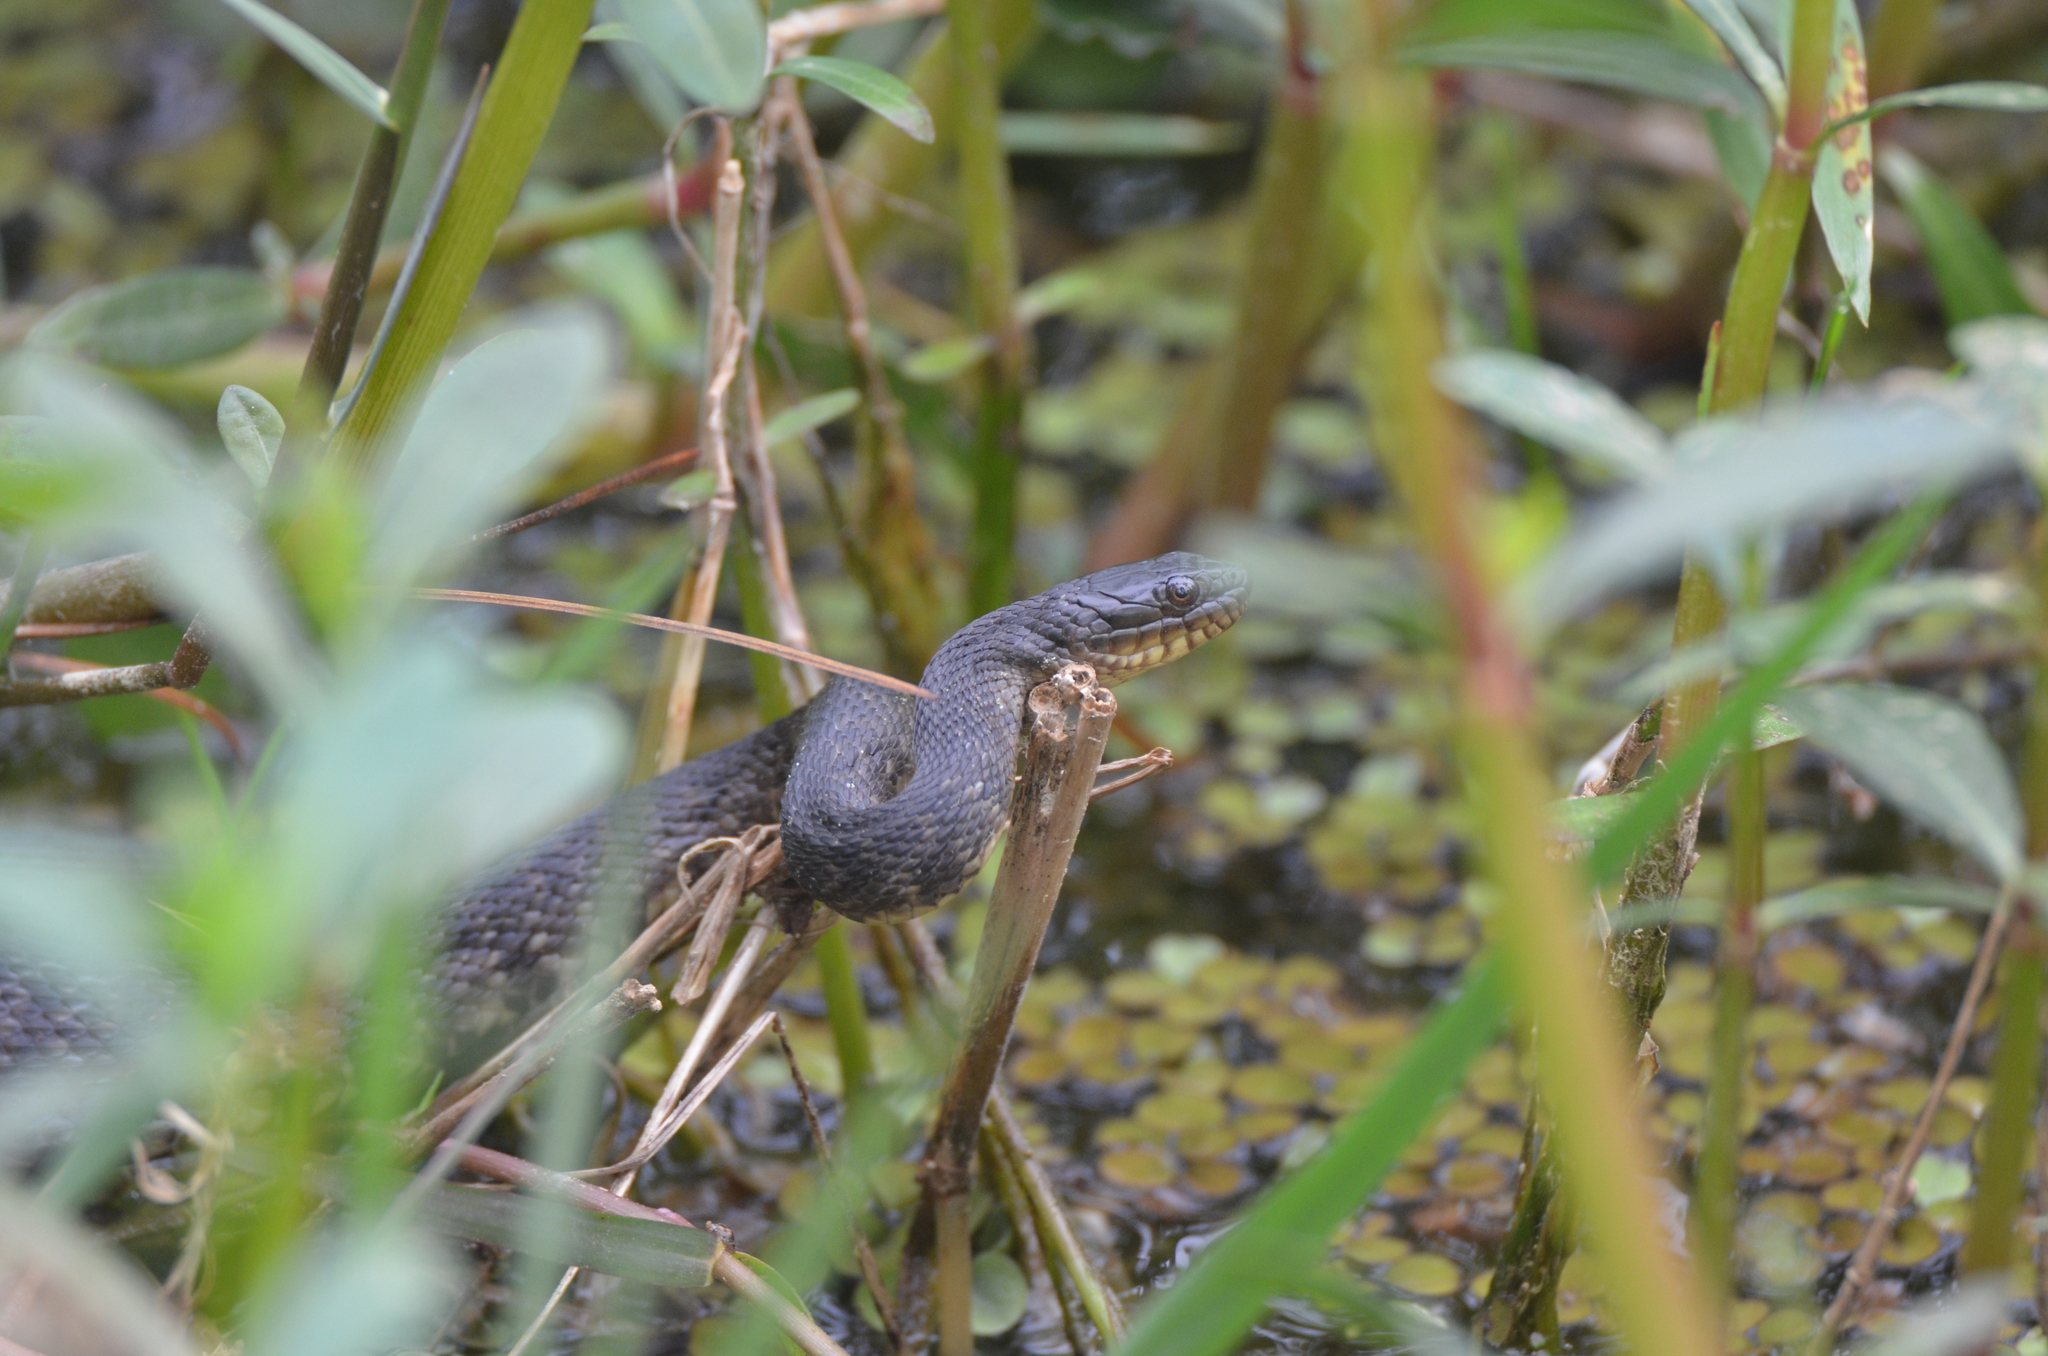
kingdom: Animalia
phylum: Chordata
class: Squamata
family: Colubridae
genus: Nerodia
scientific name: Nerodia cyclopion
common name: Mississippi green water snake
